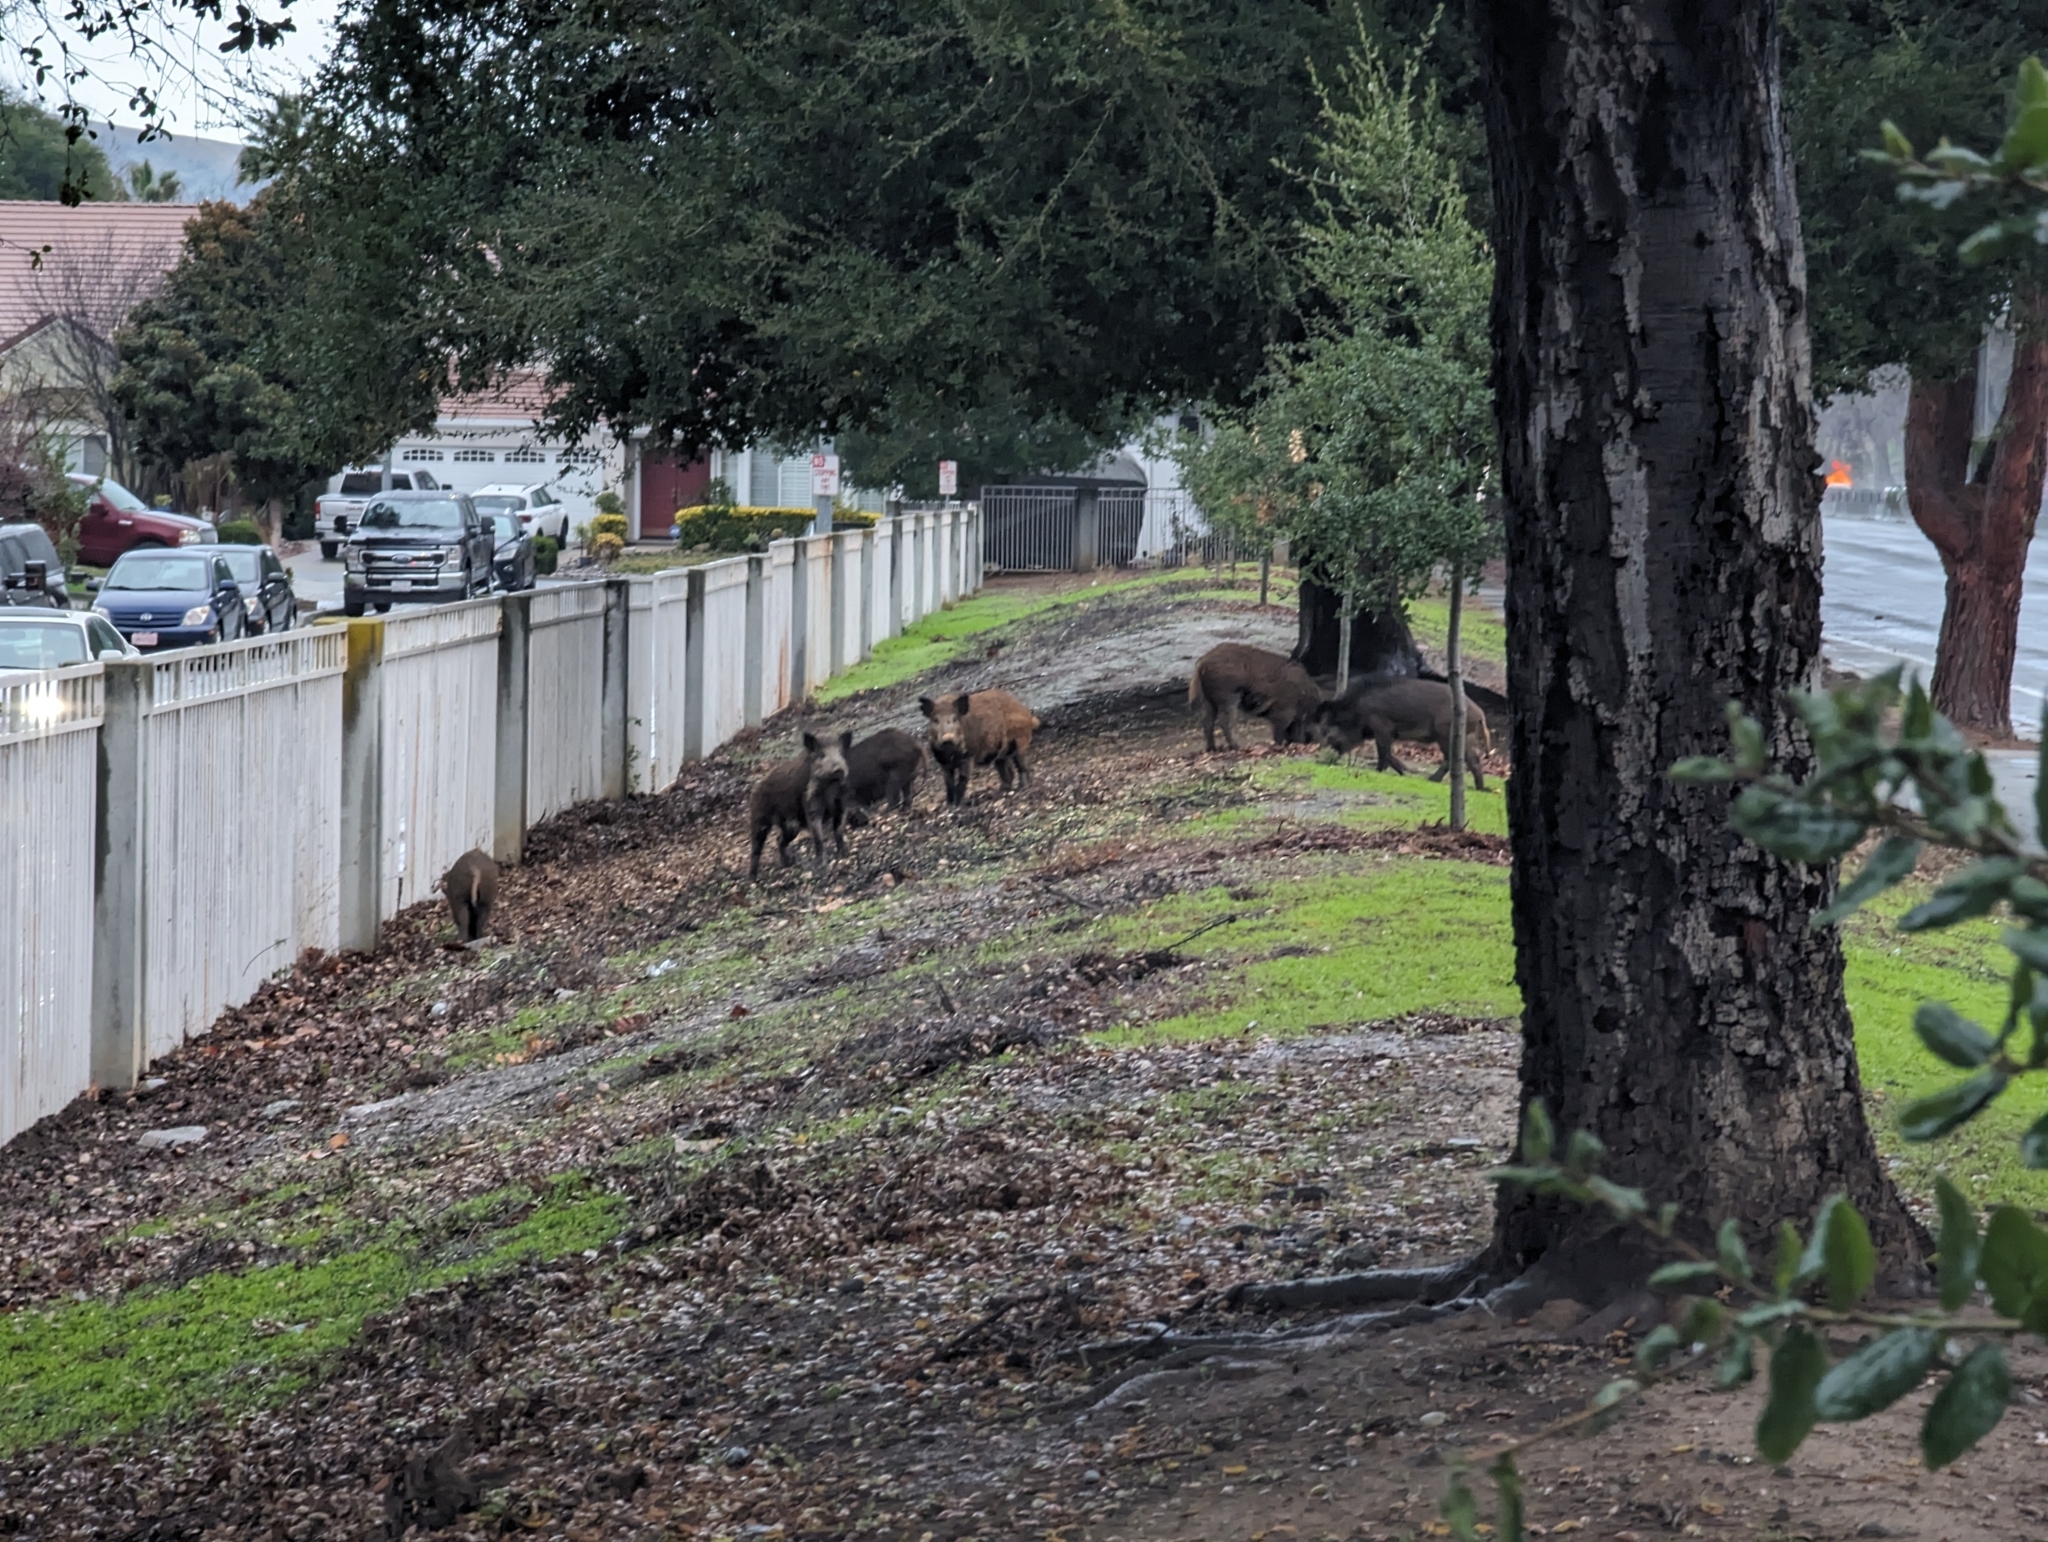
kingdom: Animalia
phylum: Chordata
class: Mammalia
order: Artiodactyla
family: Suidae
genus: Sus
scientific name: Sus scrofa
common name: Wild boar
